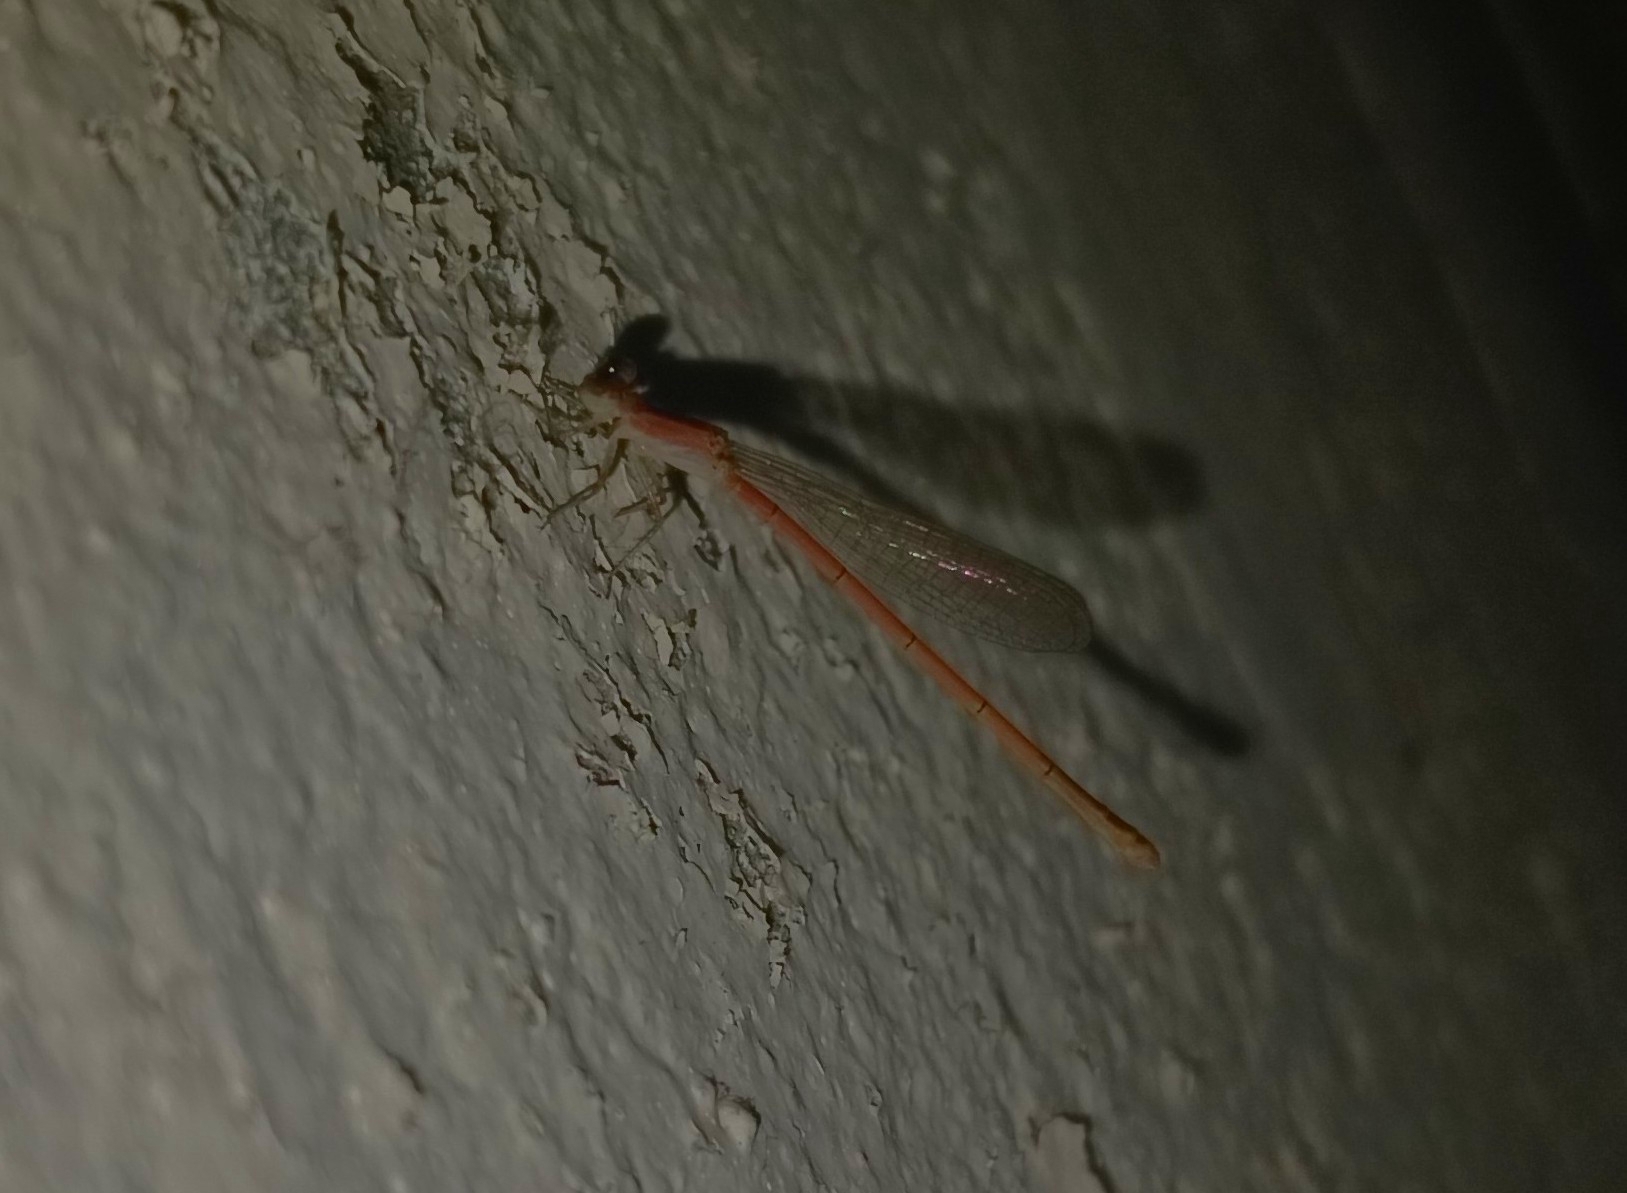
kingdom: Animalia
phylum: Arthropoda
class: Insecta
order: Odonata
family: Coenagrionidae
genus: Agriocnemis
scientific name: Agriocnemis pygmaea
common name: Pygmy wisp
